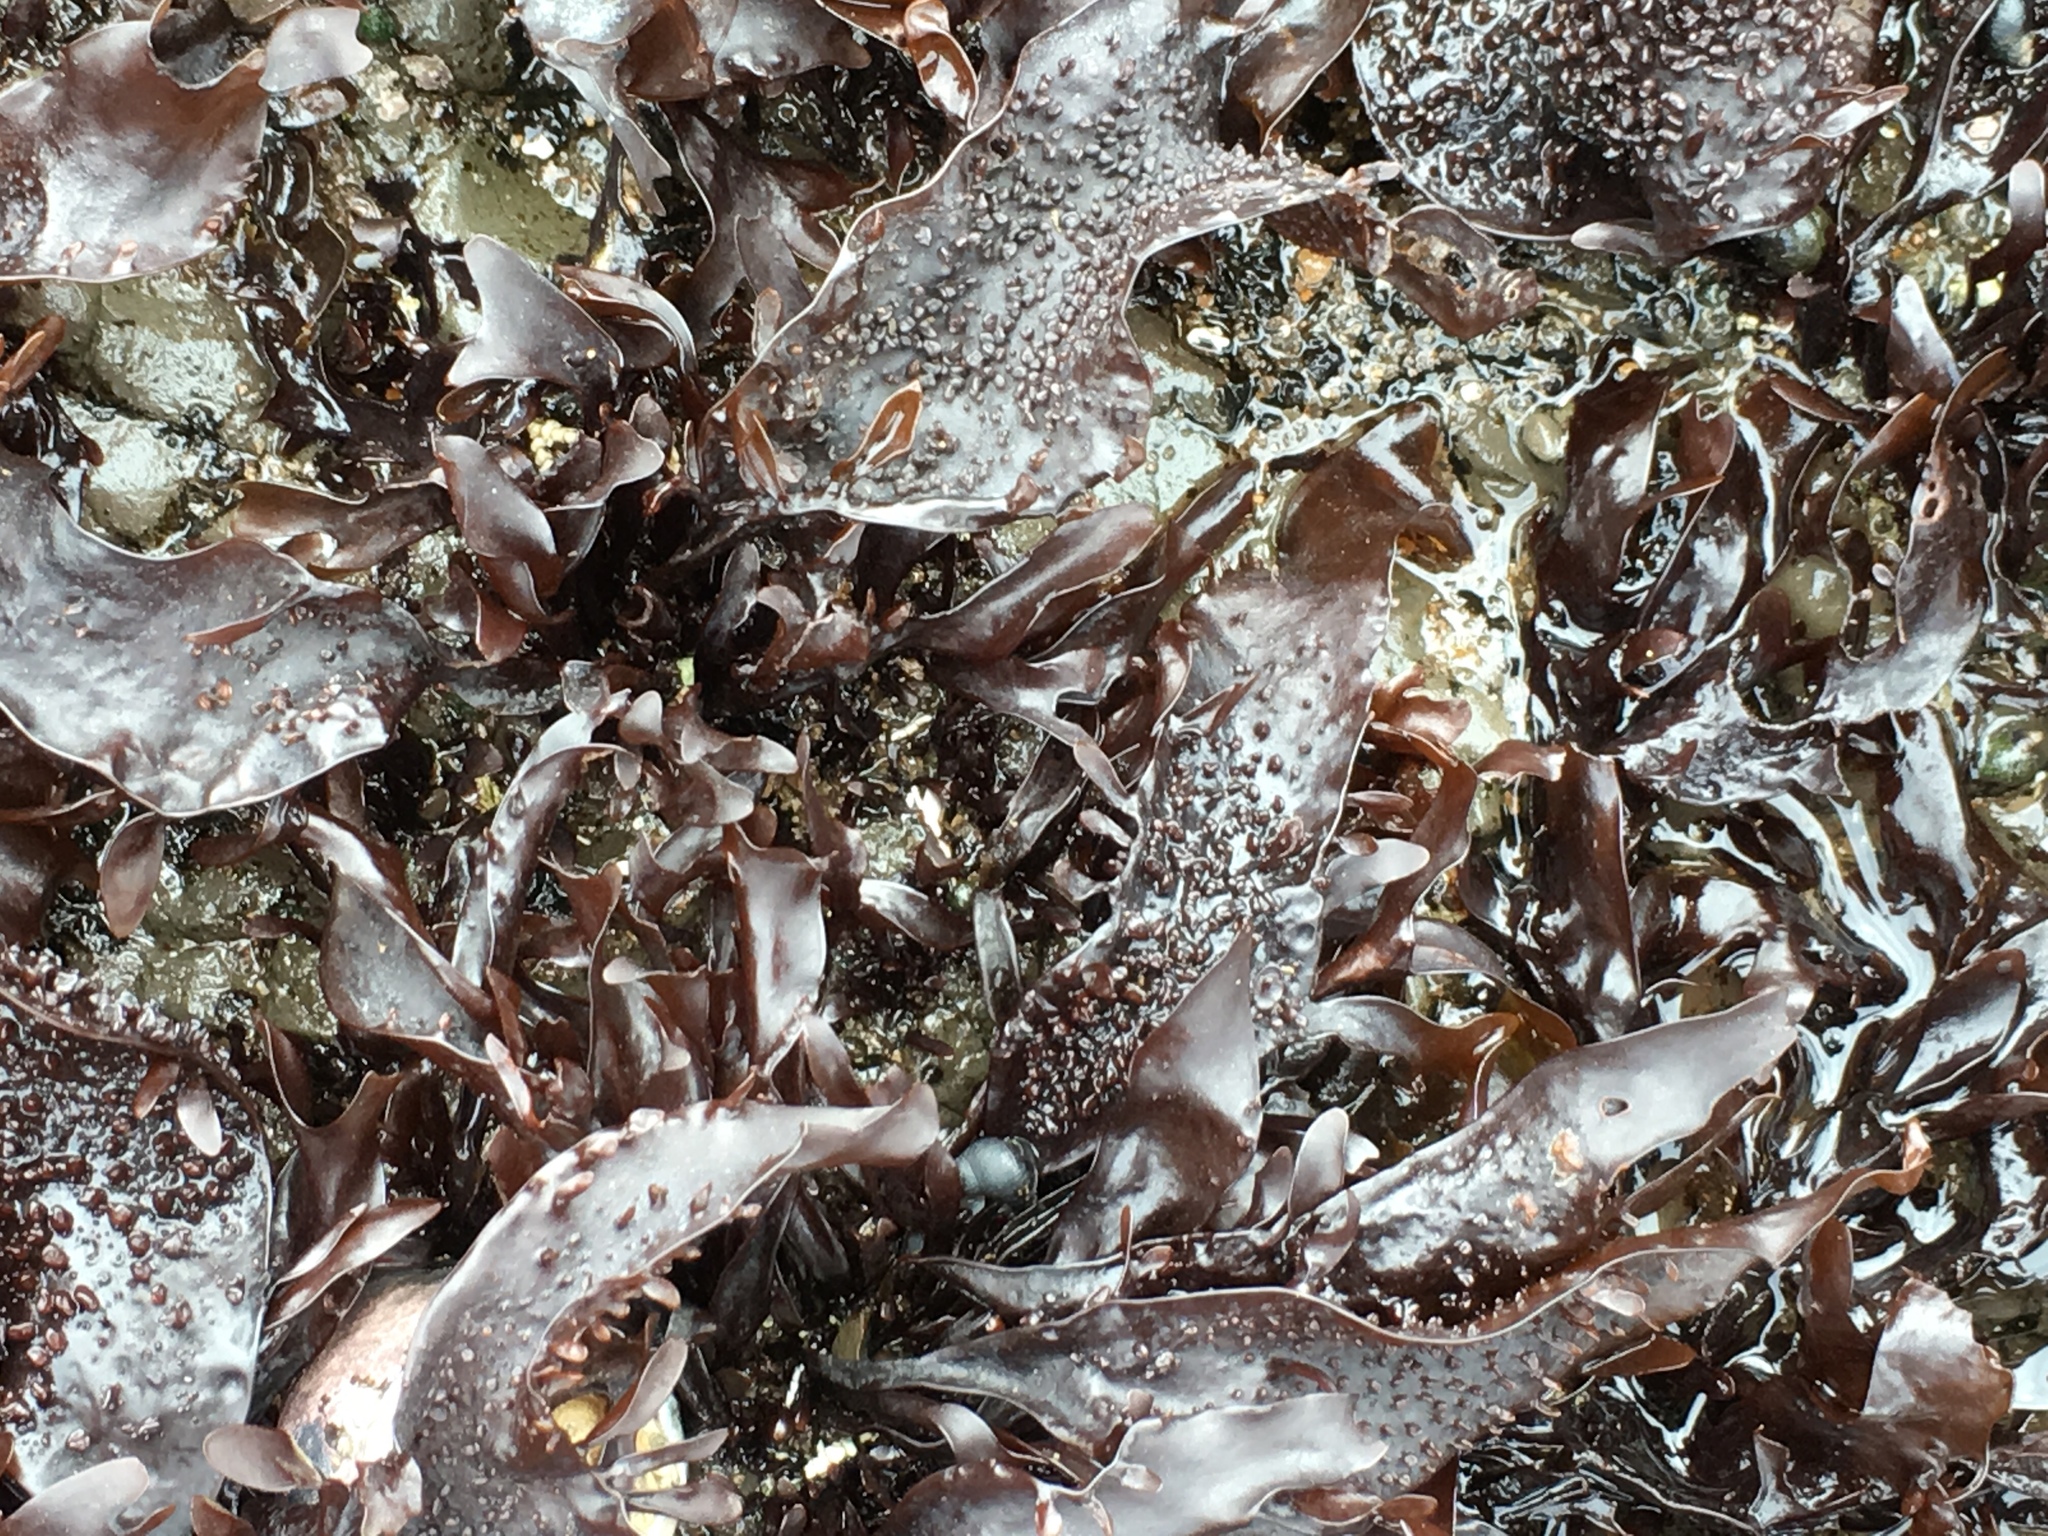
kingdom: Plantae
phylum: Rhodophyta
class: Florideophyceae
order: Gigartinales
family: Phyllophoraceae
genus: Mastocarpus
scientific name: Mastocarpus papillatus
